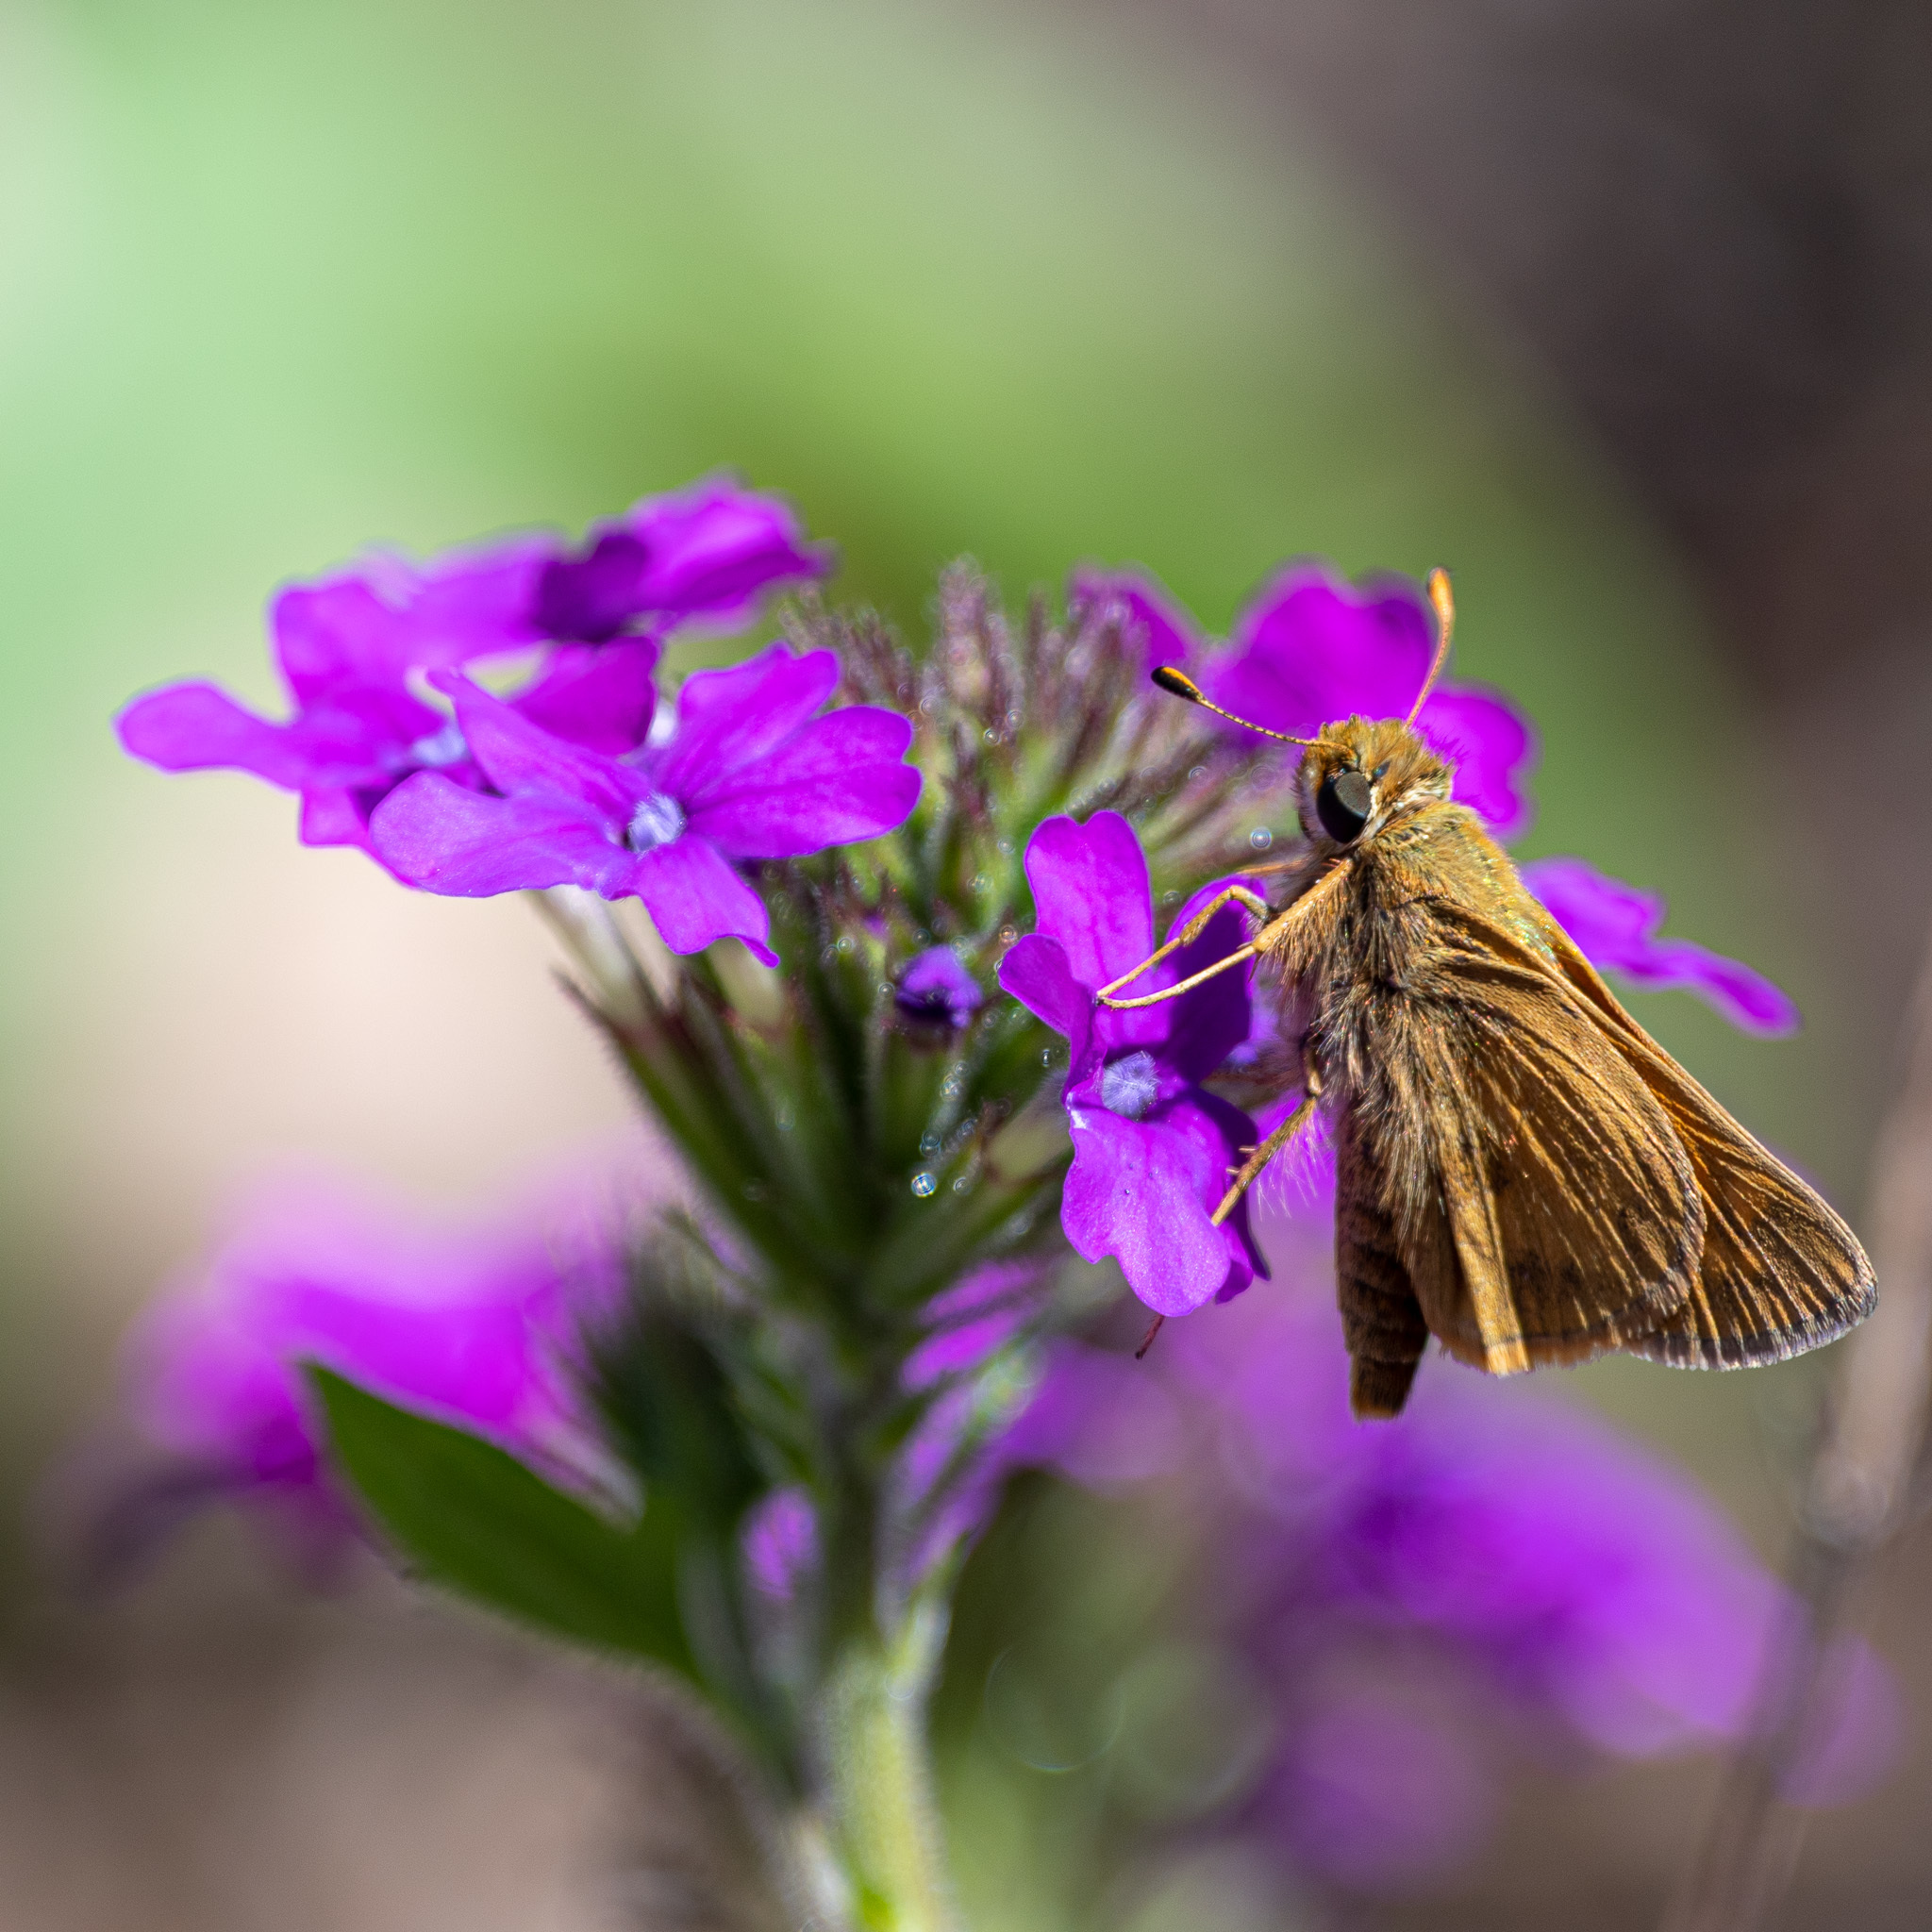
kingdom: Animalia
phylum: Arthropoda
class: Insecta
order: Lepidoptera
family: Hesperiidae
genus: Atalopedes
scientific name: Atalopedes
